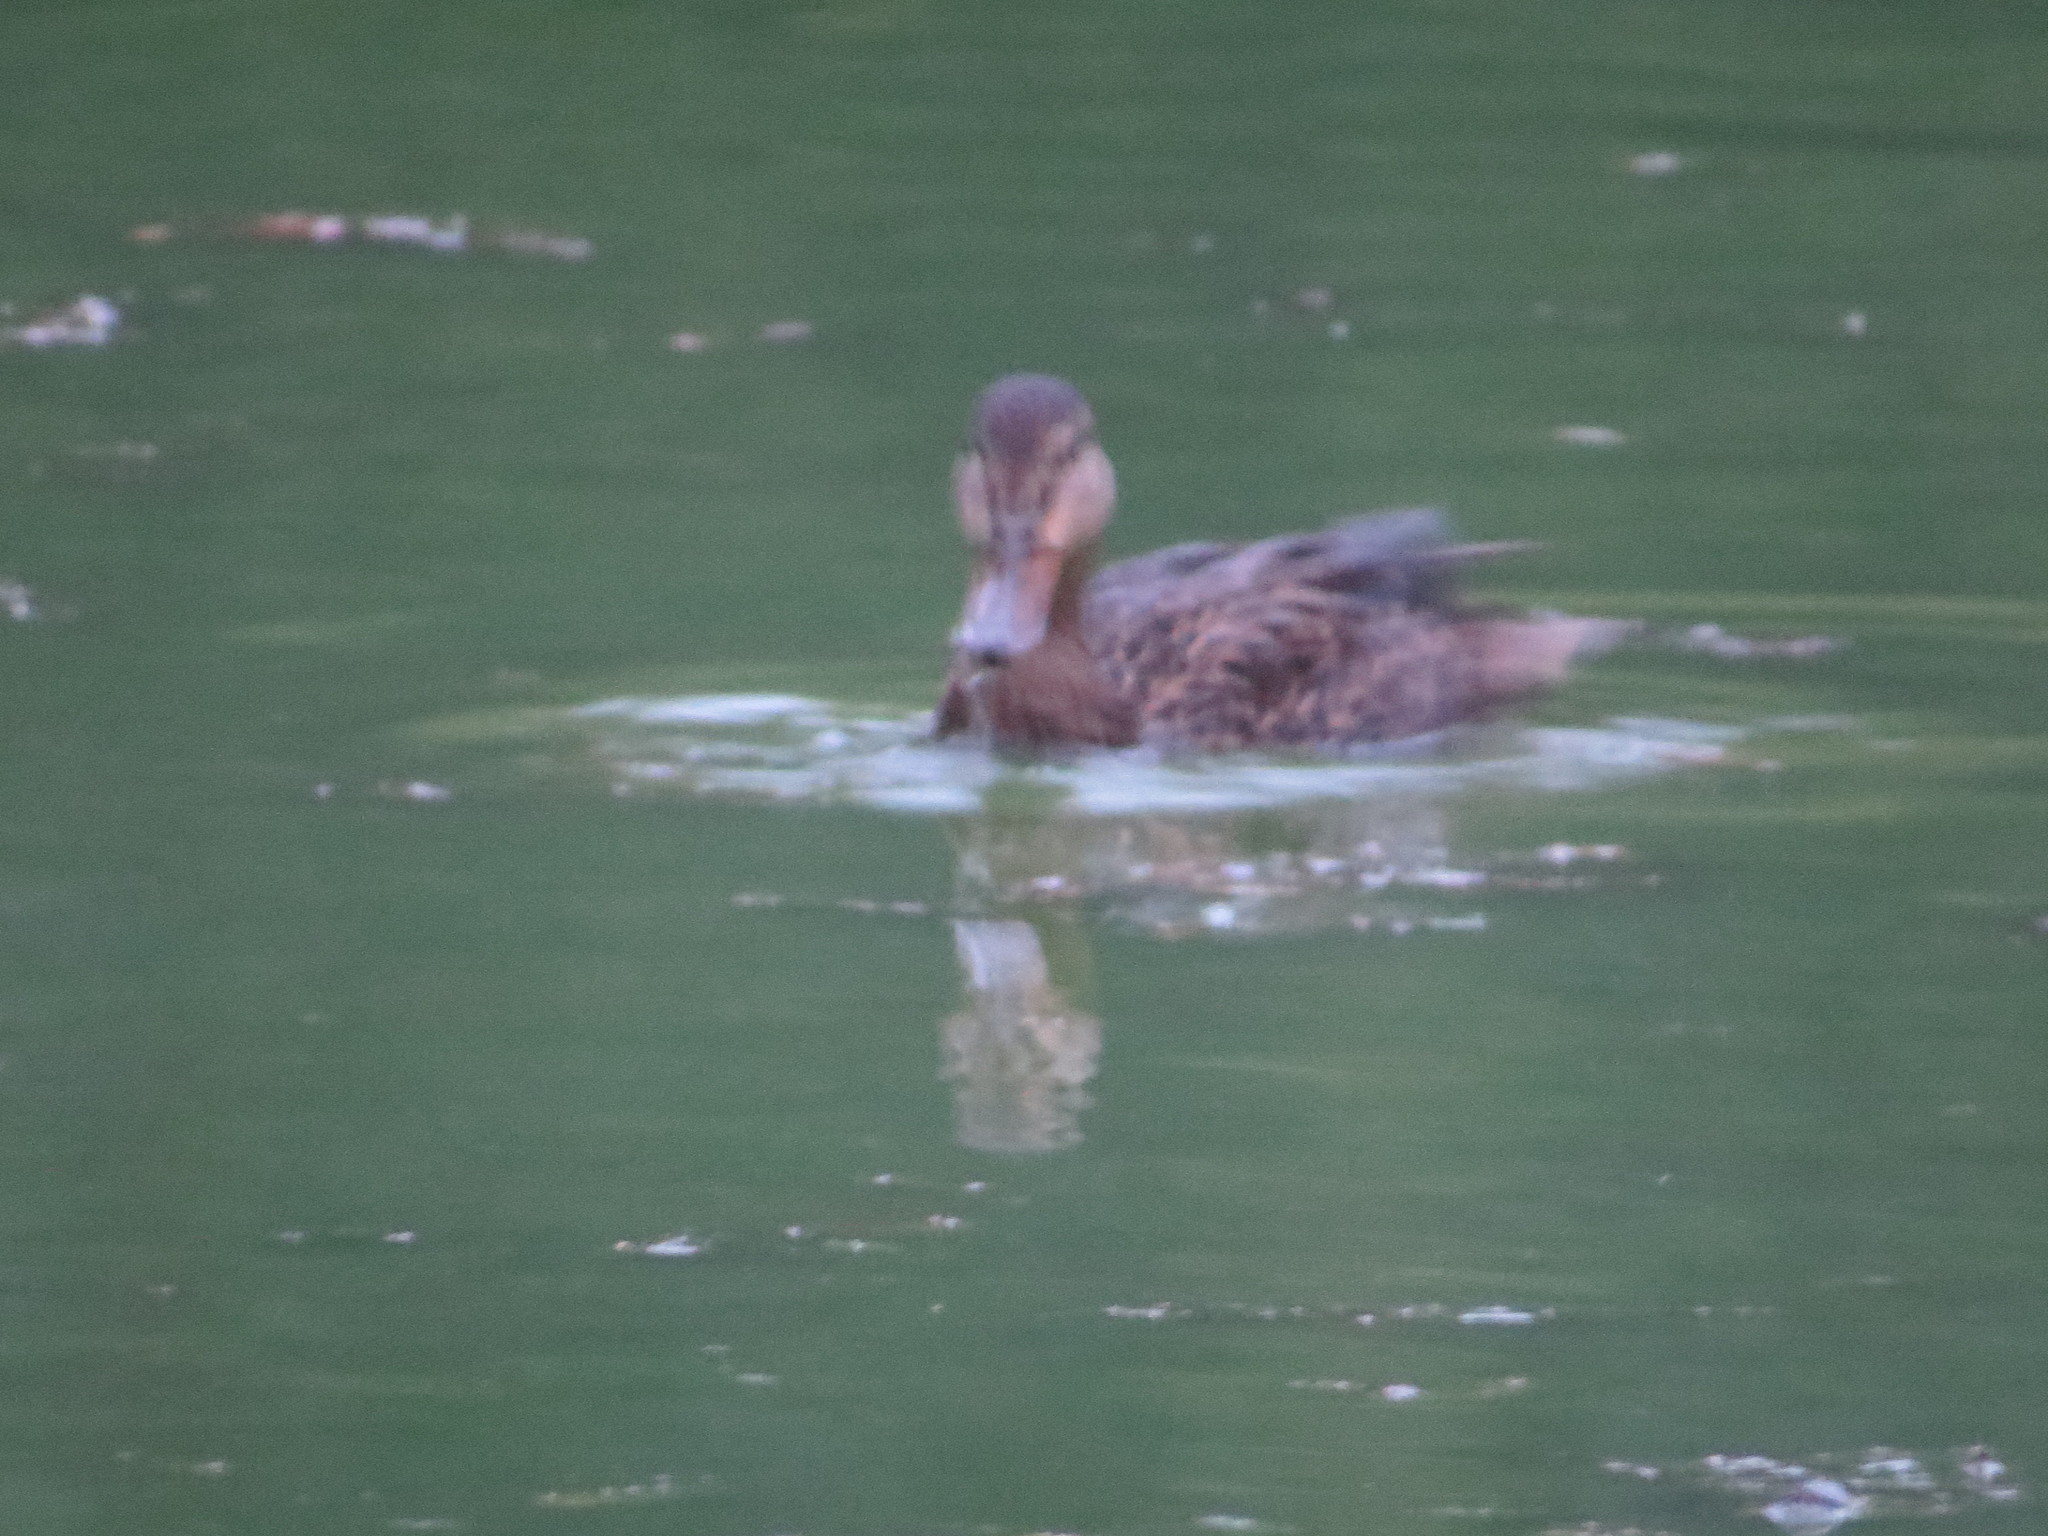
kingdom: Animalia
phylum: Chordata
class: Aves
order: Anseriformes
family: Anatidae
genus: Anas
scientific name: Anas diazi
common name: Mexican duck
